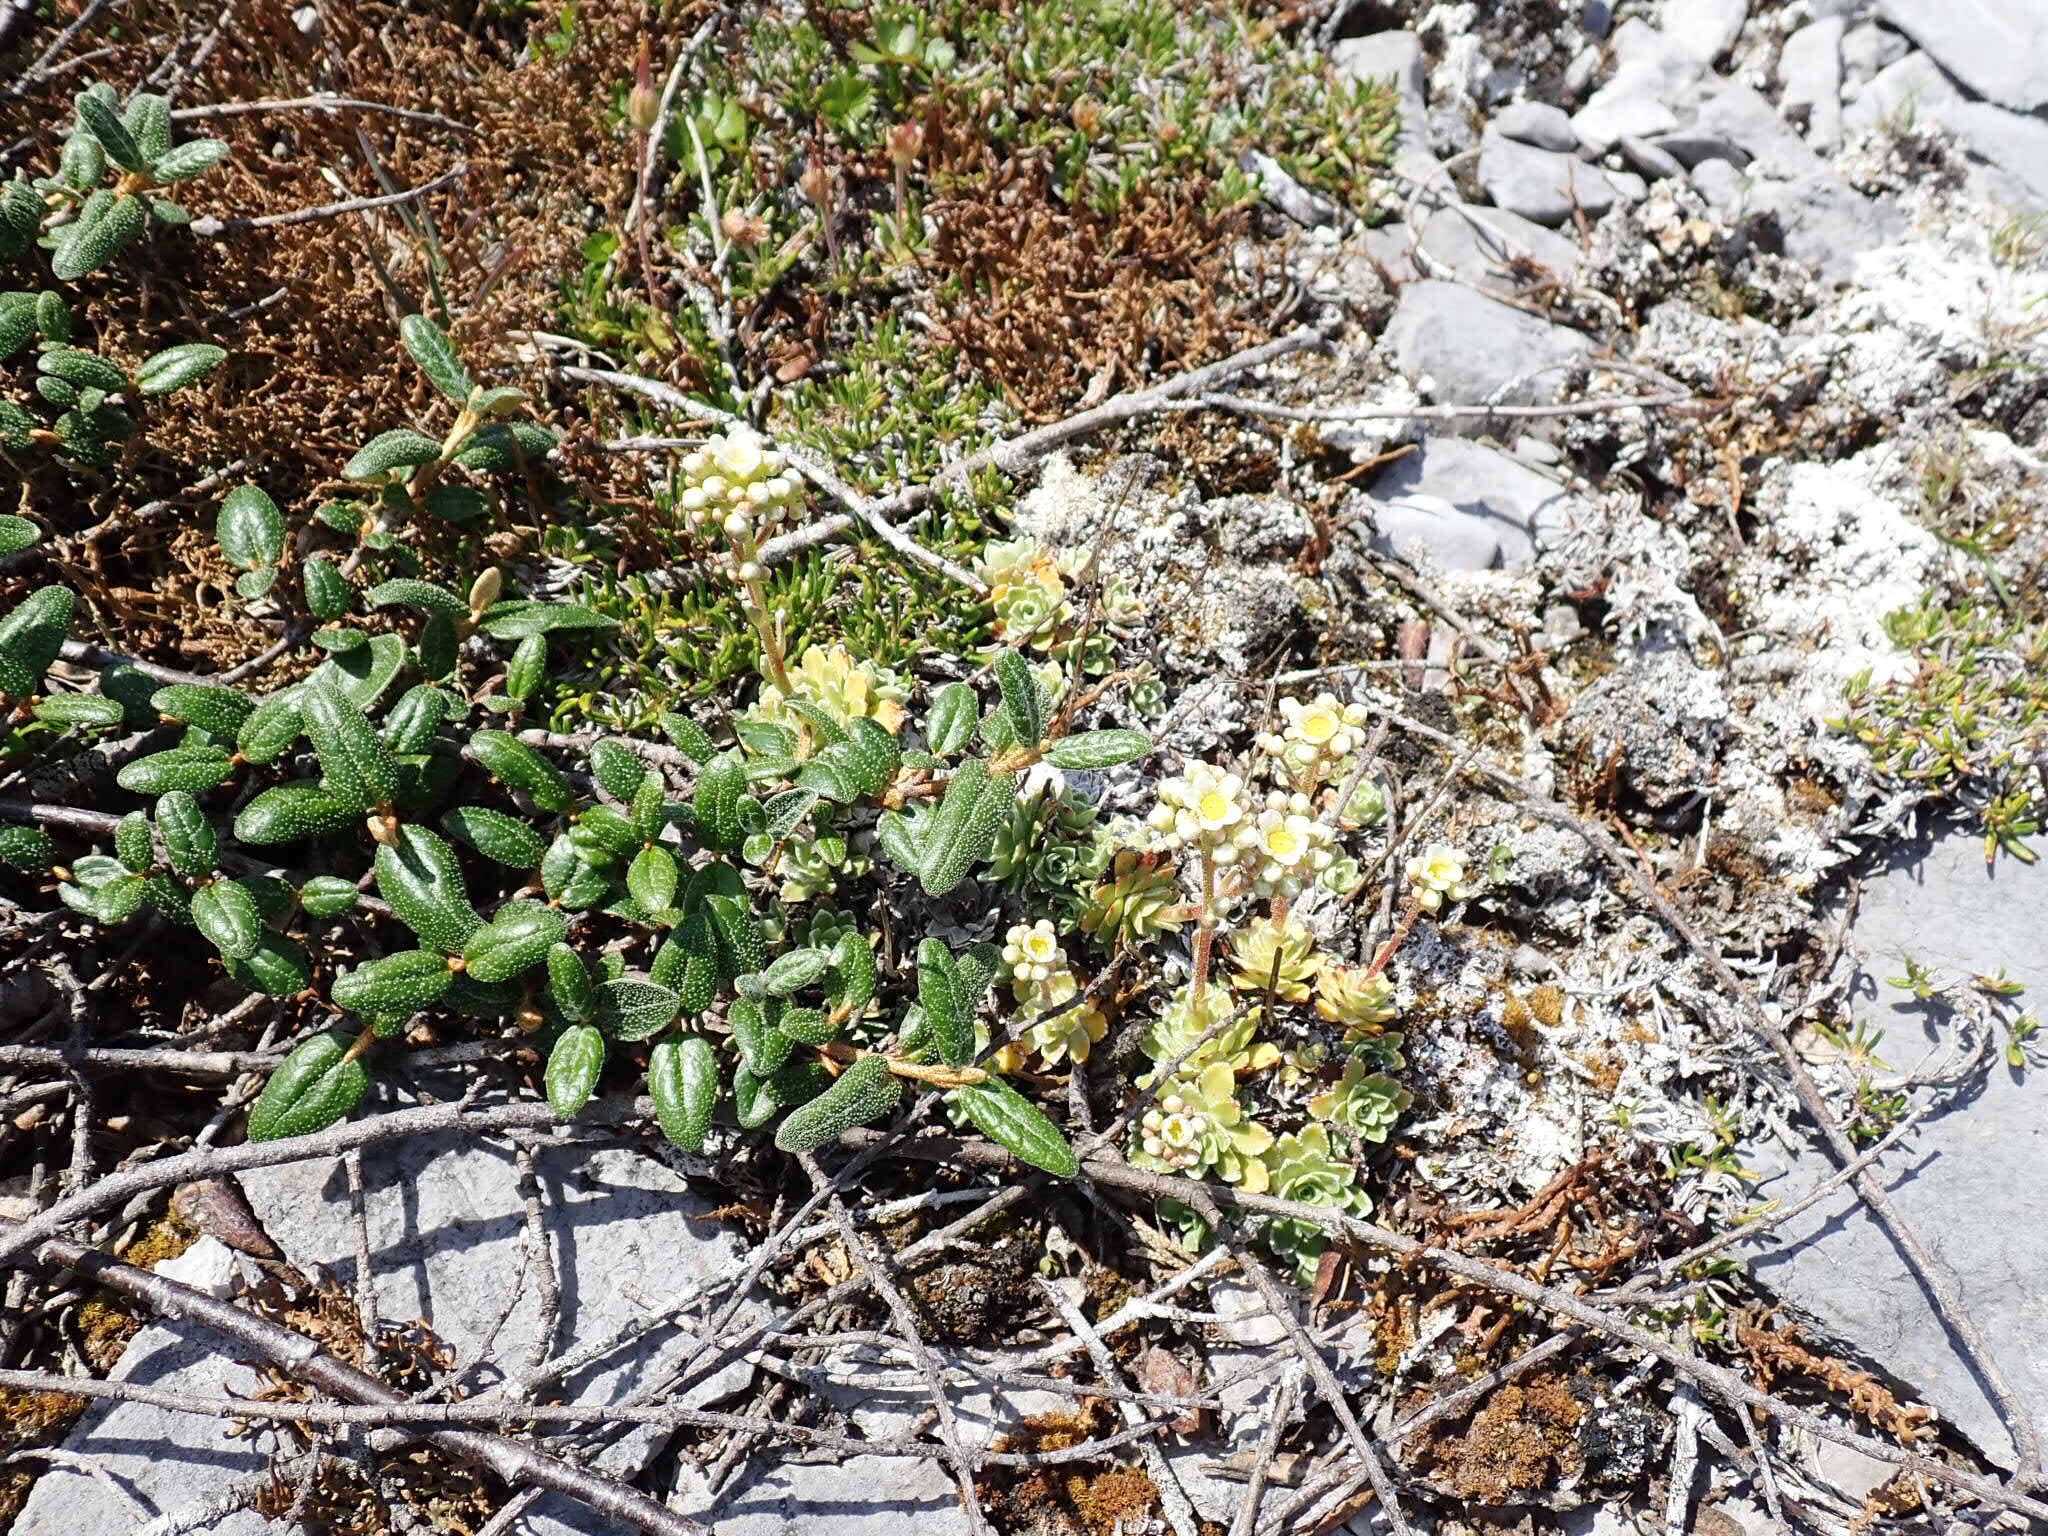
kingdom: Plantae
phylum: Tracheophyta
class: Magnoliopsida
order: Saxifragales
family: Saxifragaceae
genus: Saxifraga
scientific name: Saxifraga paniculata
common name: Livelong saxifrage
